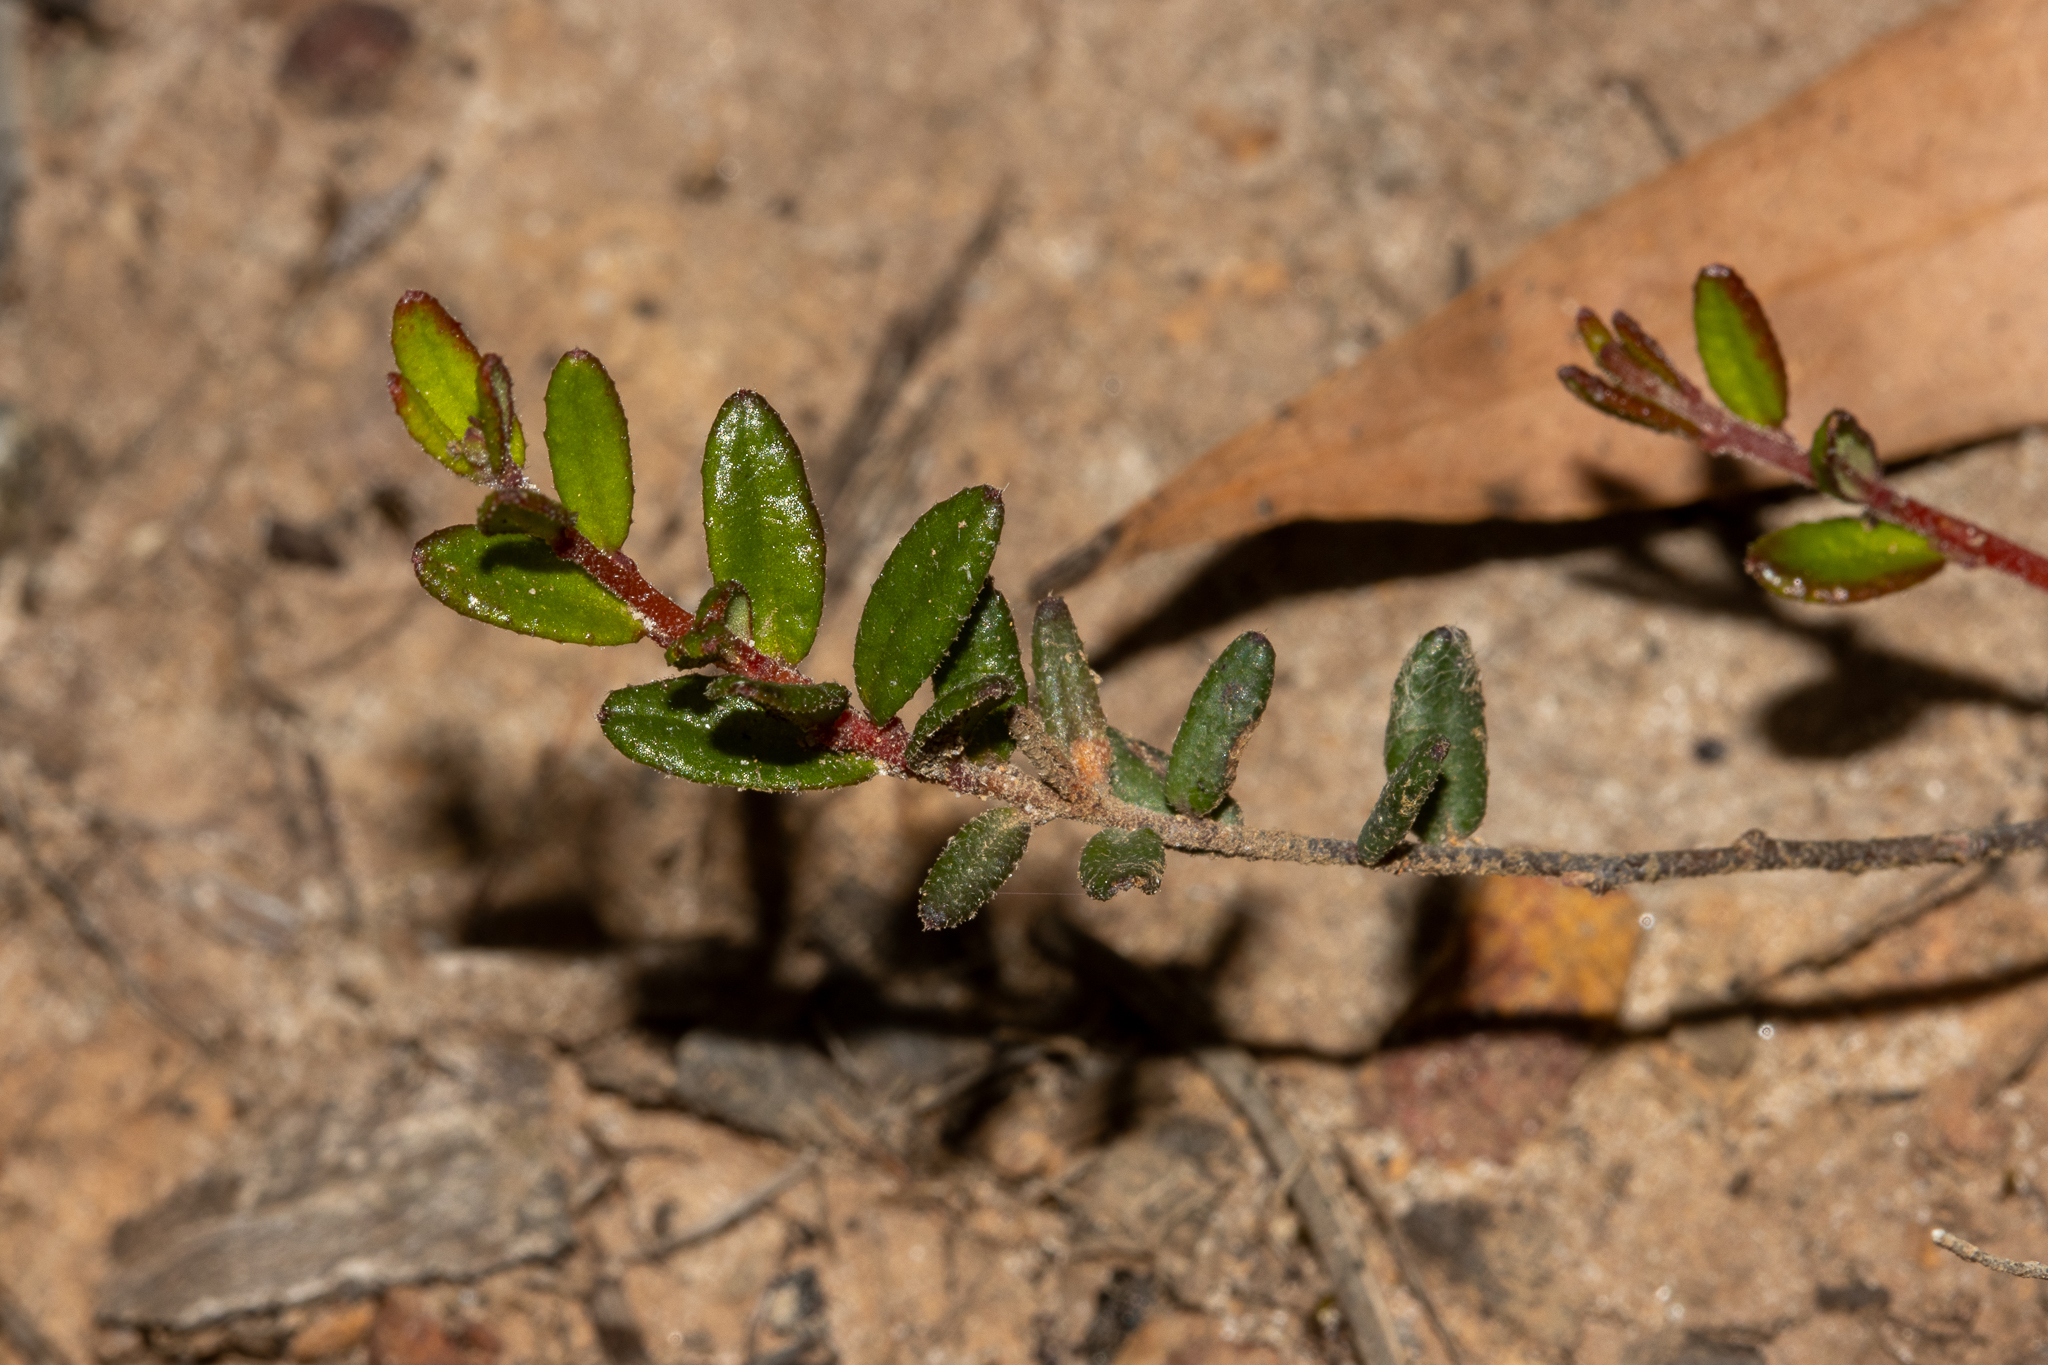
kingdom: Plantae
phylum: Tracheophyta
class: Magnoliopsida
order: Dilleniales
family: Dilleniaceae
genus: Hibbertia
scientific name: Hibbertia
